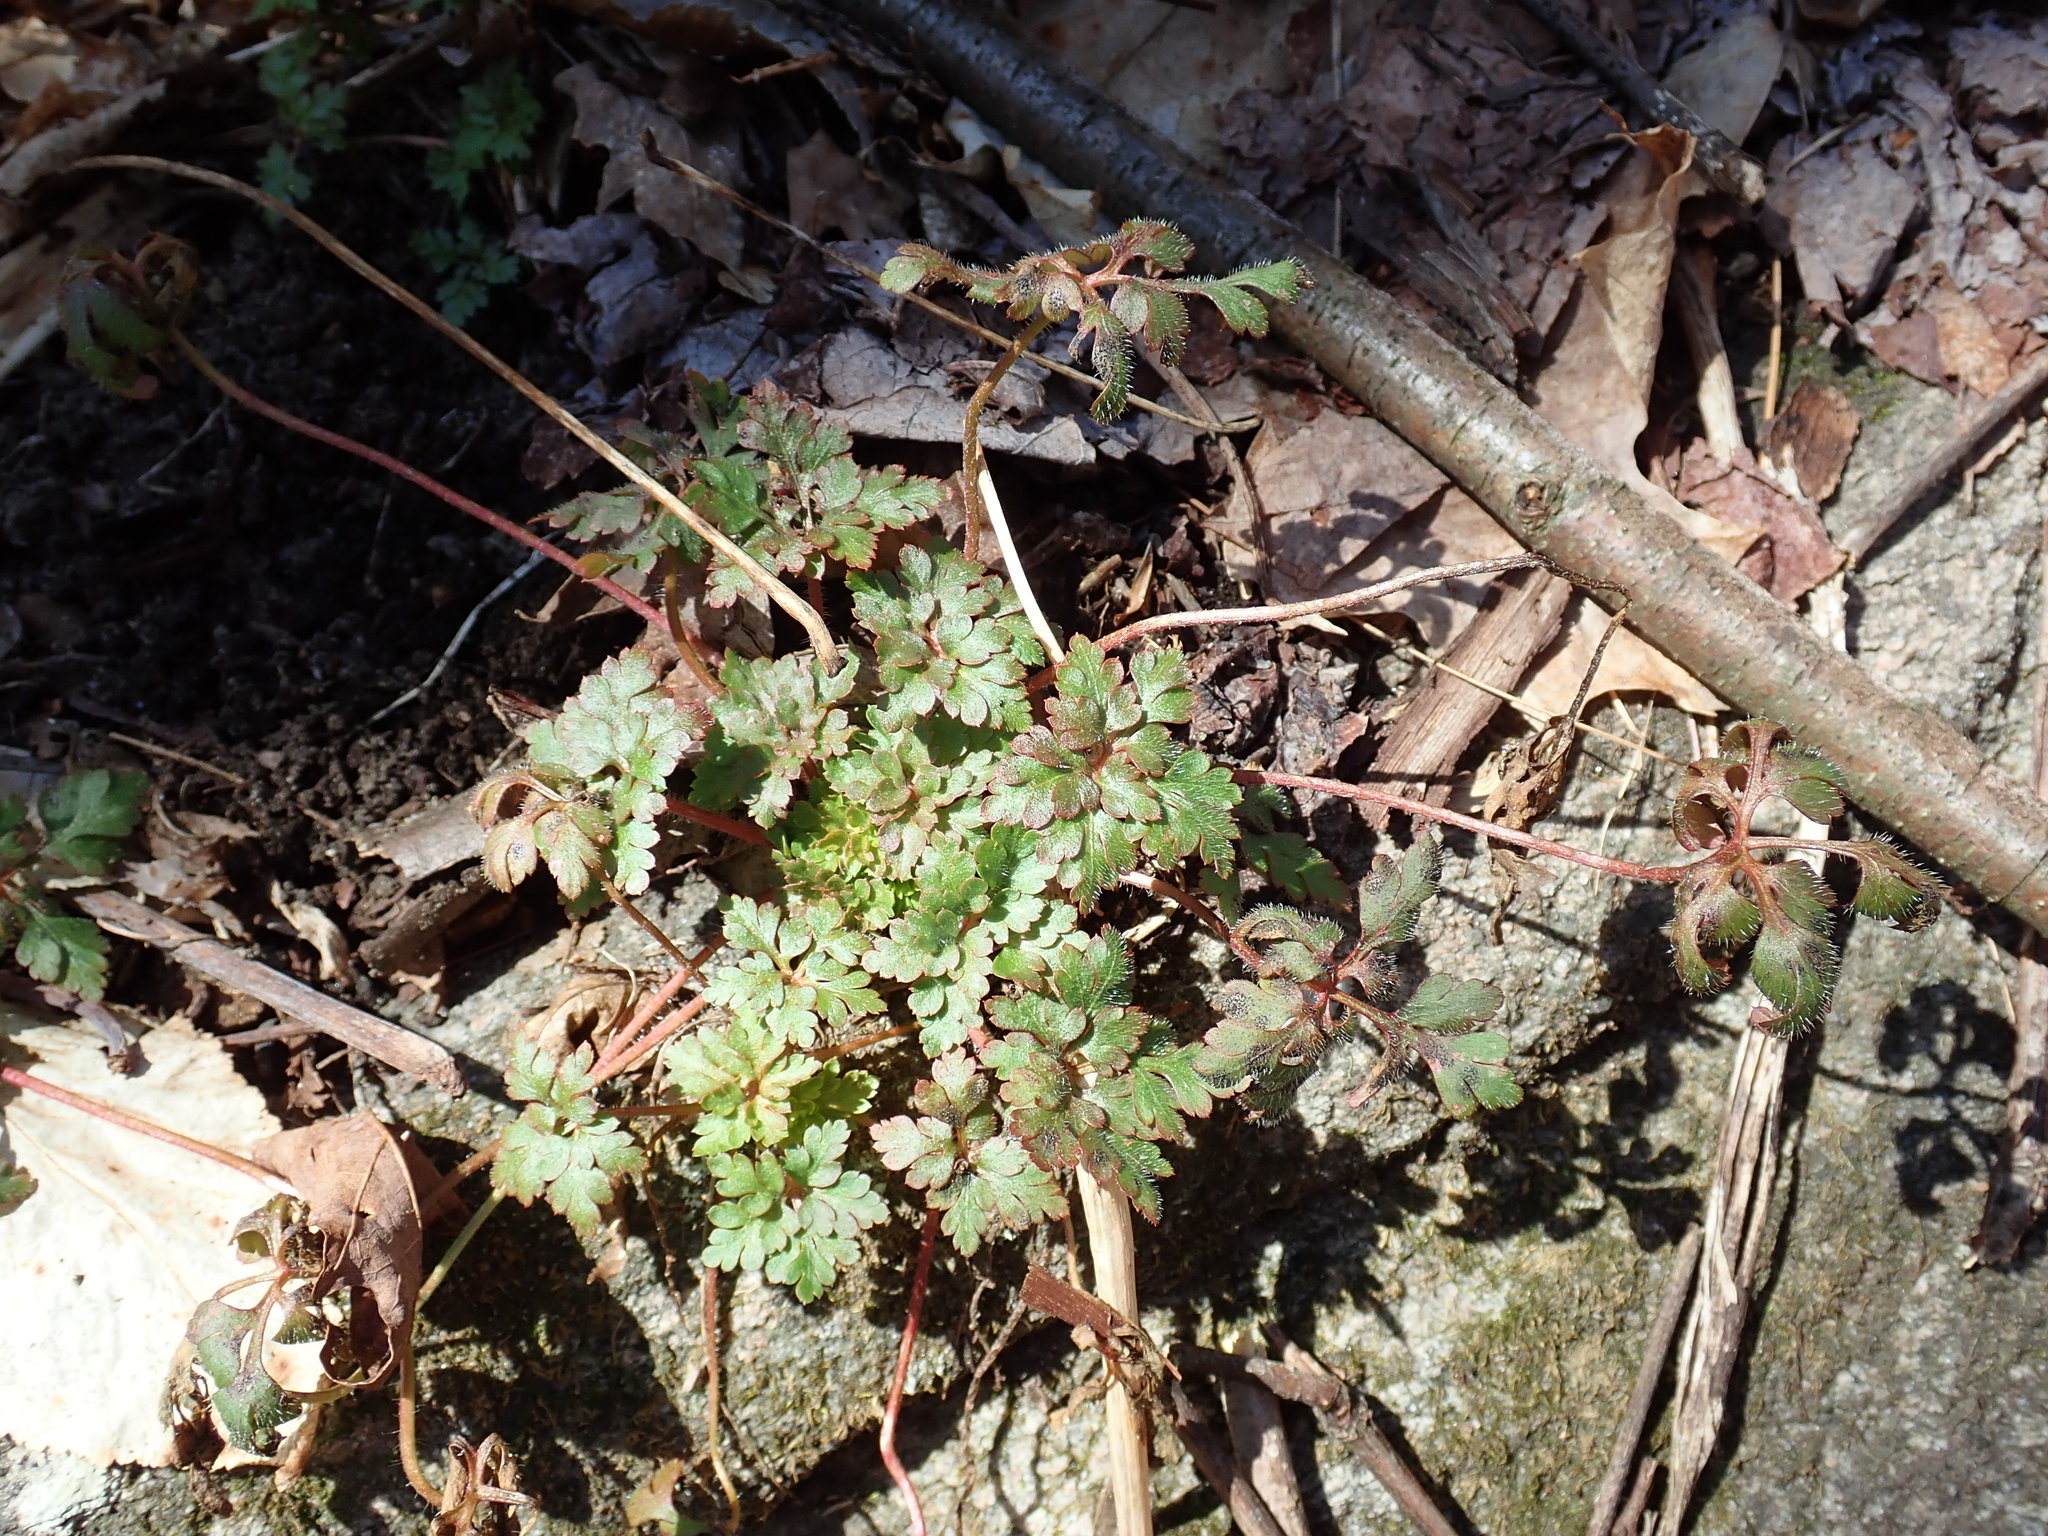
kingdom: Plantae
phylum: Tracheophyta
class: Magnoliopsida
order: Geraniales
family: Geraniaceae
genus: Geranium
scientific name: Geranium robertianum
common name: Herb-robert
